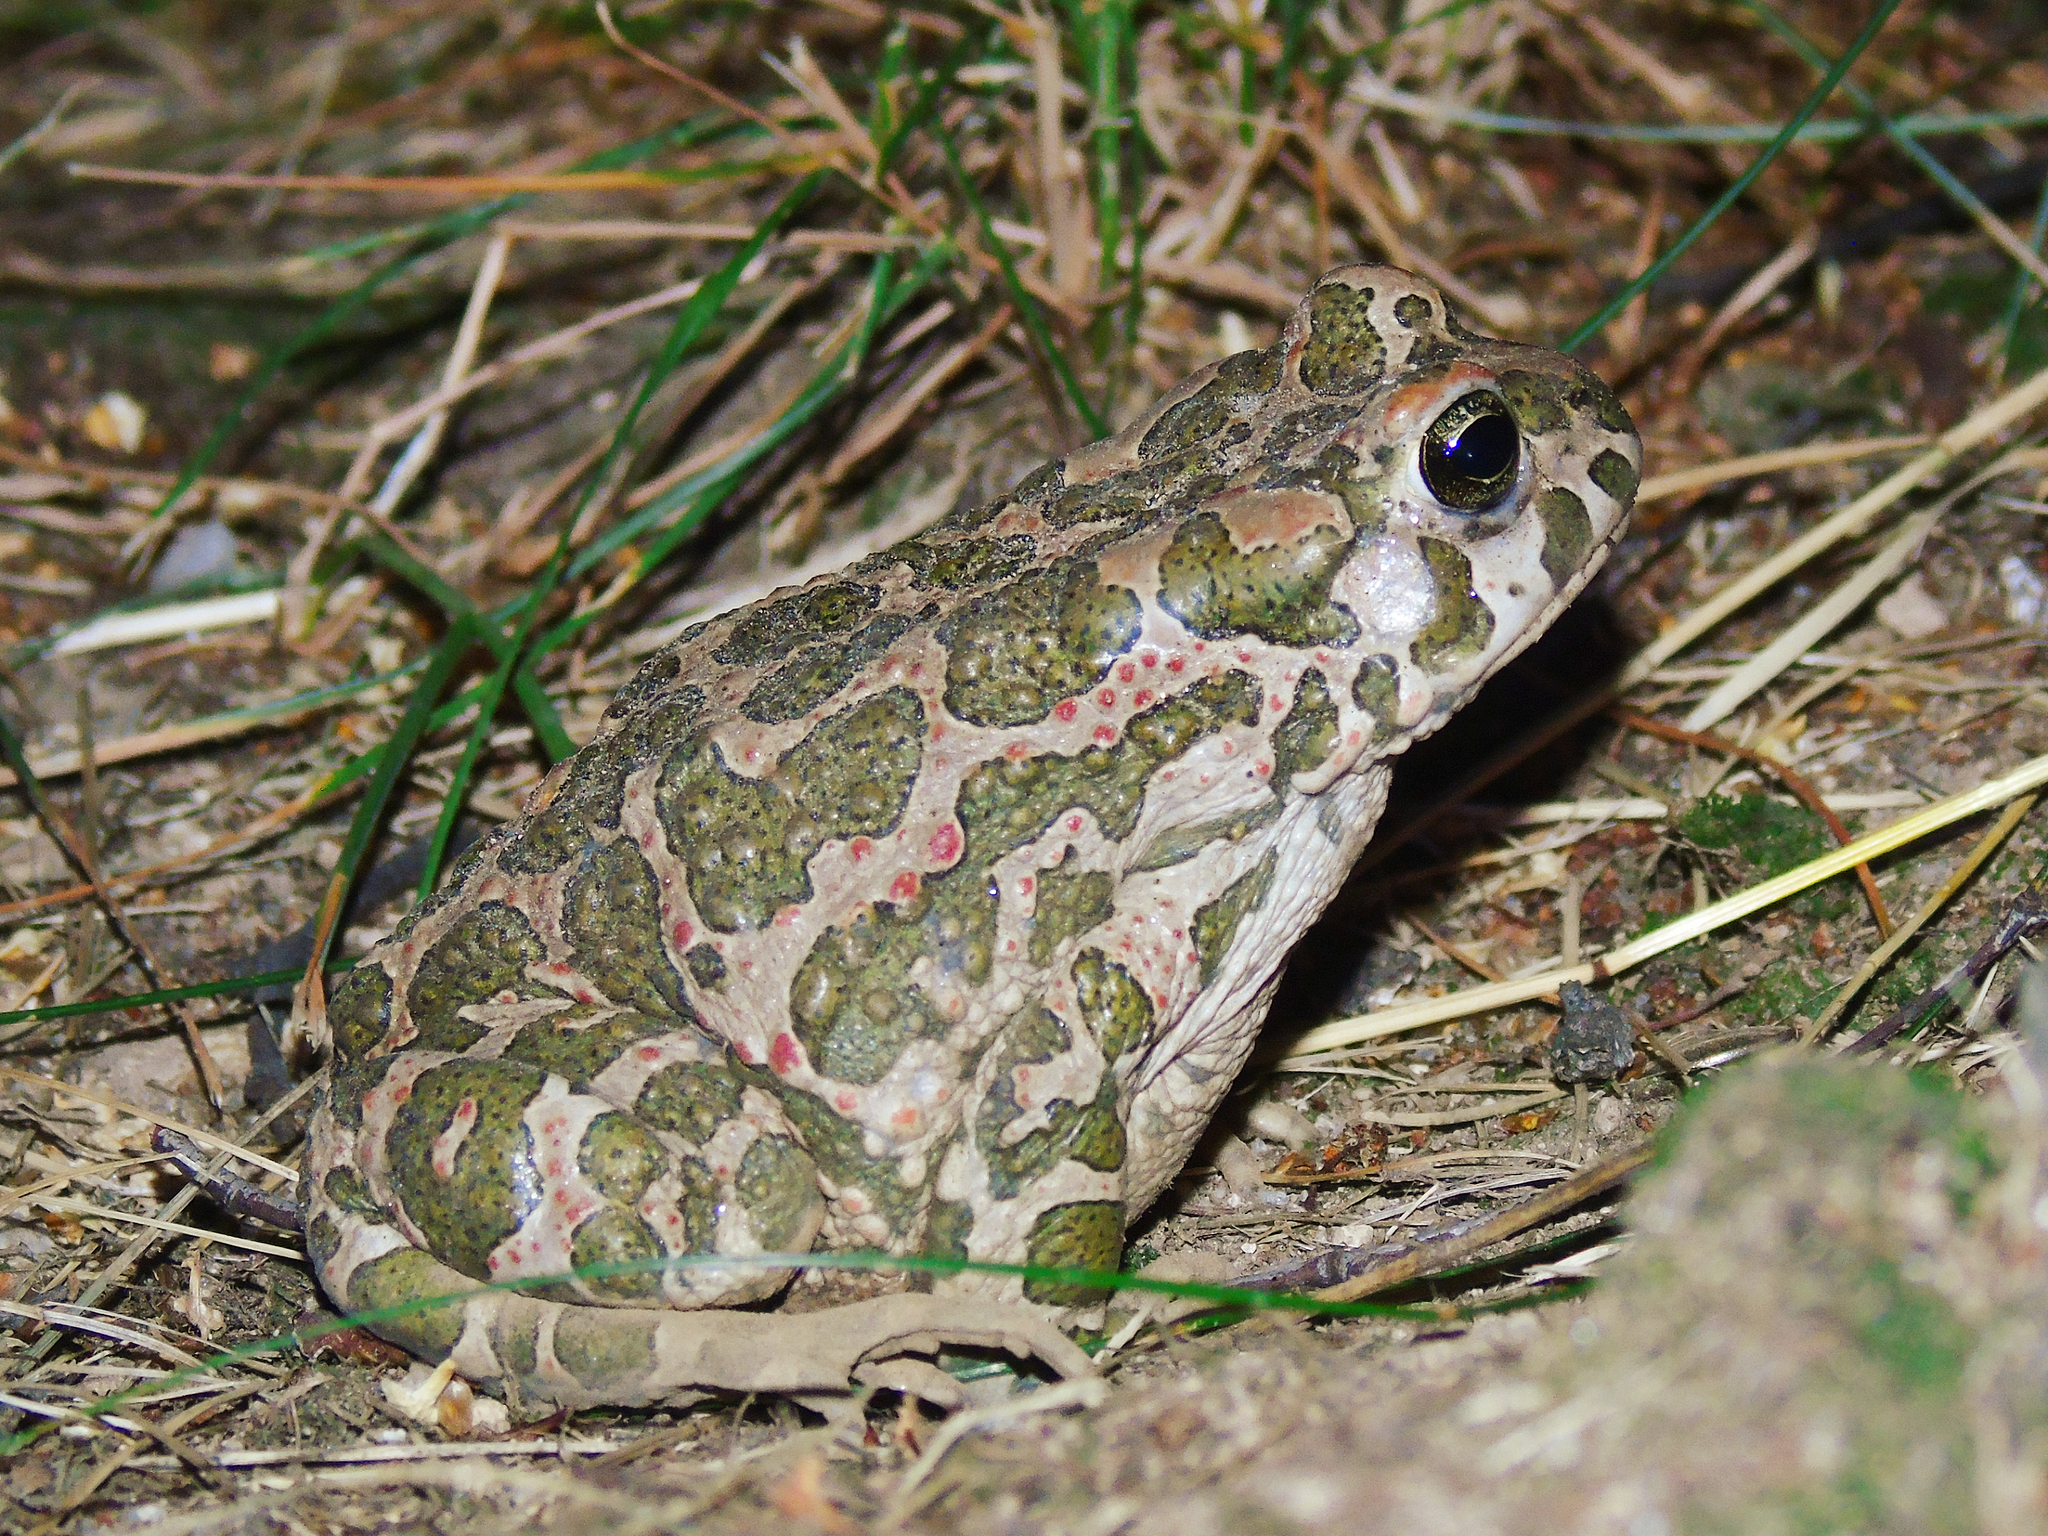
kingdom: Animalia
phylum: Chordata
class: Amphibia
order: Anura
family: Bufonidae
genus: Bufotes
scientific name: Bufotes viridis
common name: European green toad
